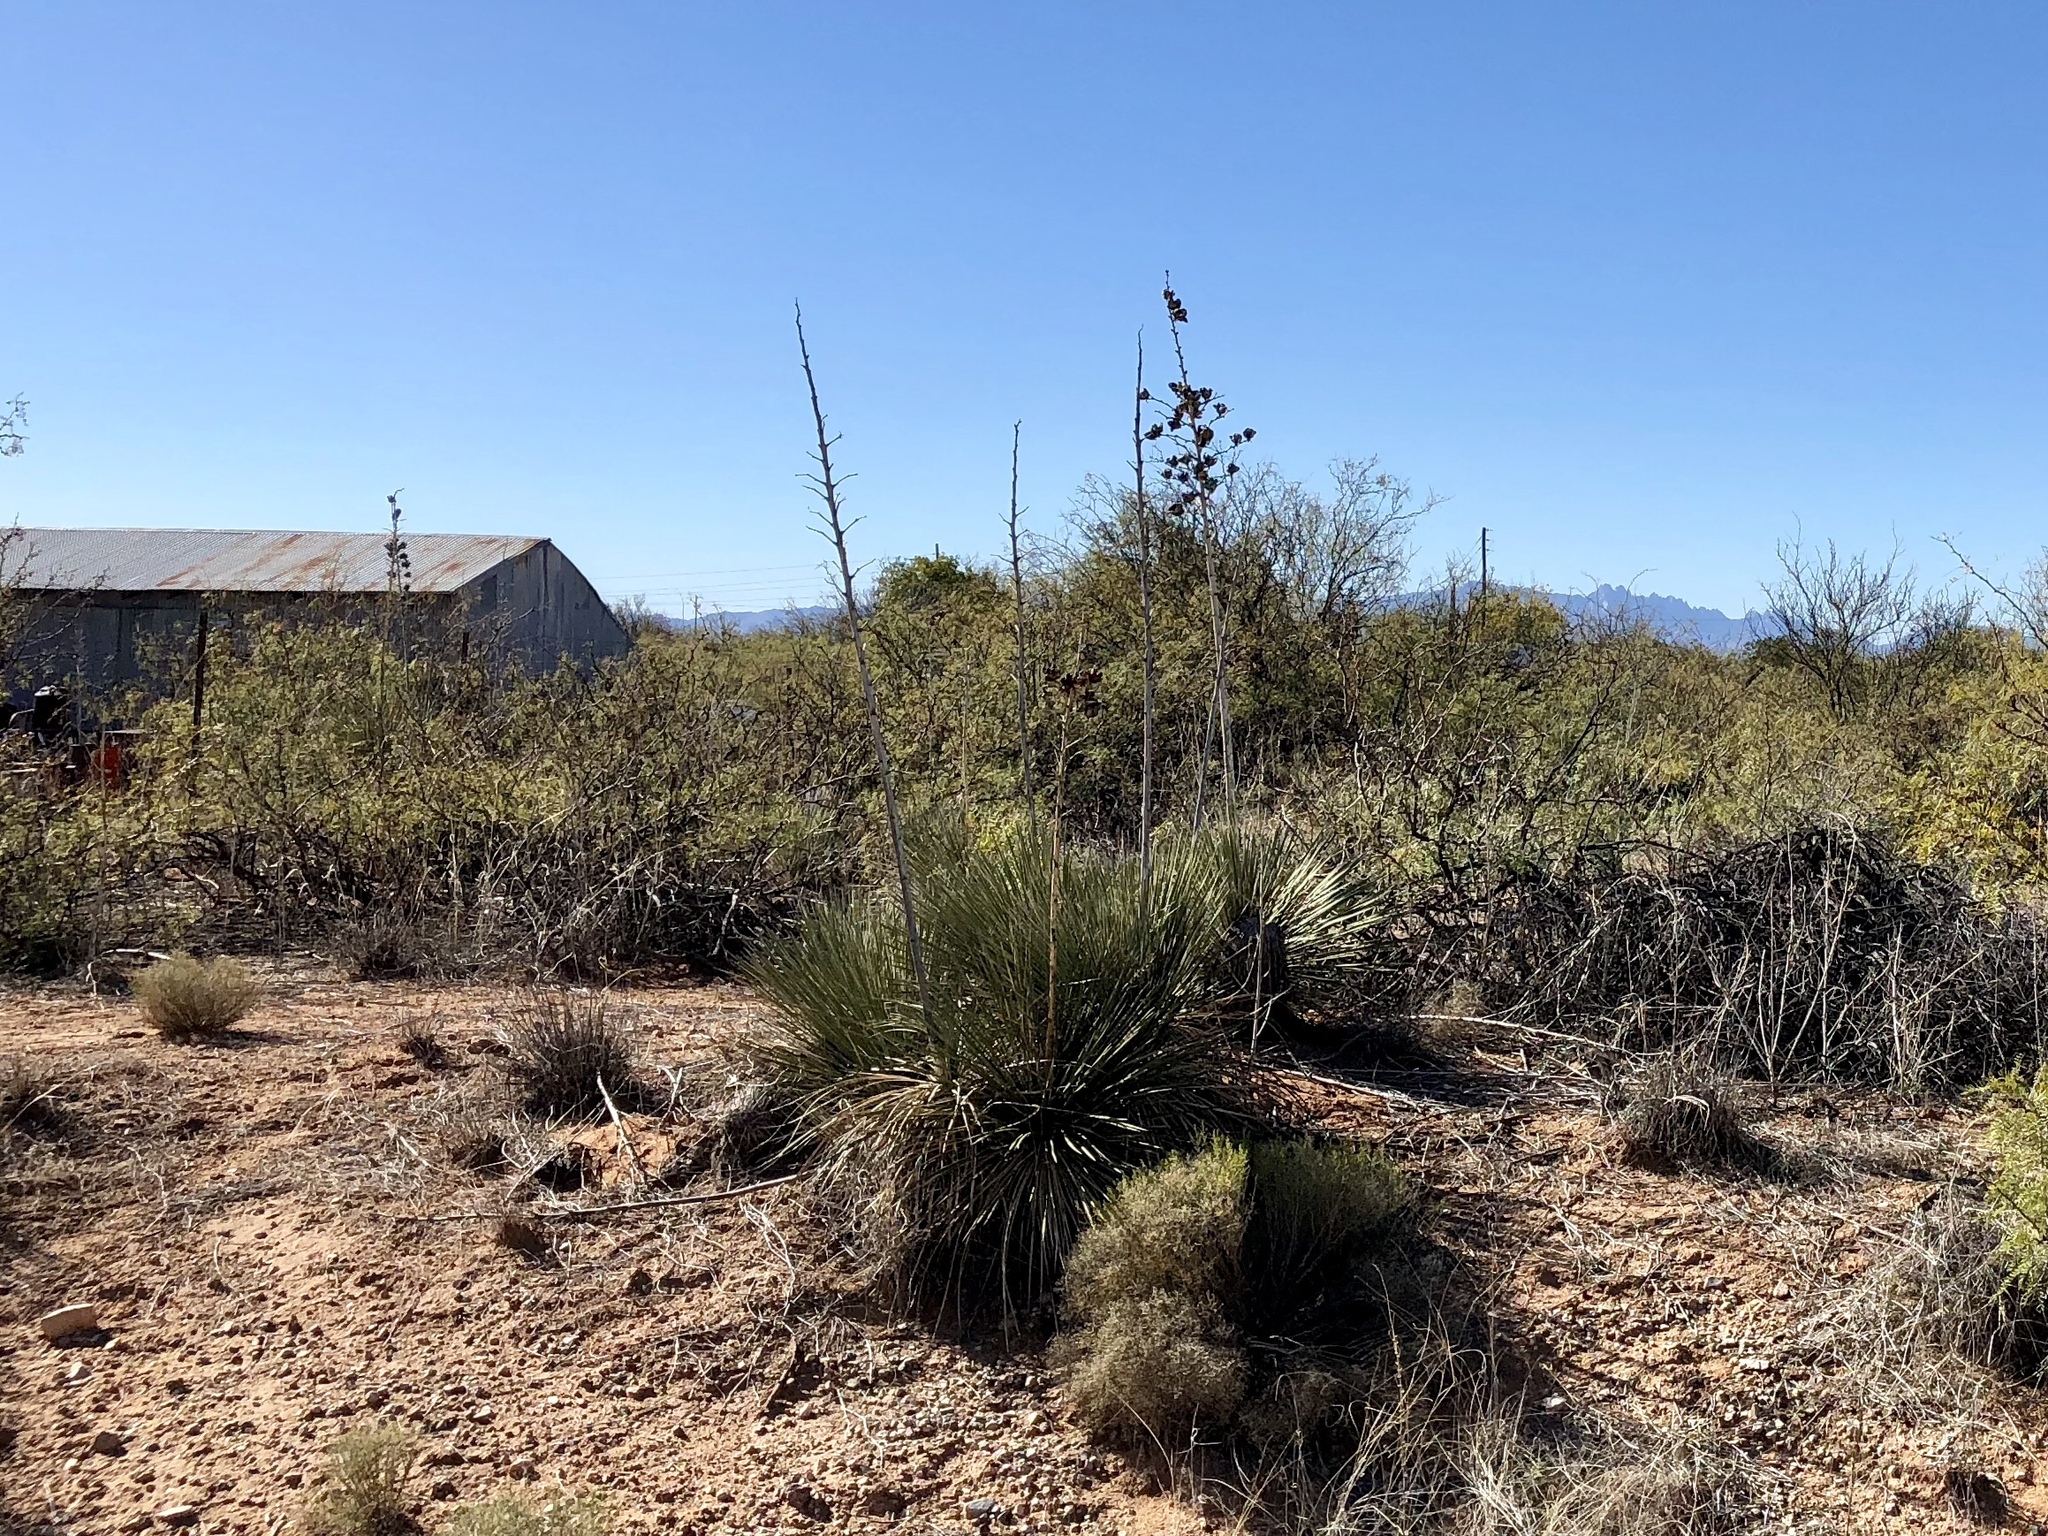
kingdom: Plantae
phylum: Tracheophyta
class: Liliopsida
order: Asparagales
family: Asparagaceae
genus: Yucca
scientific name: Yucca elata
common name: Palmella
